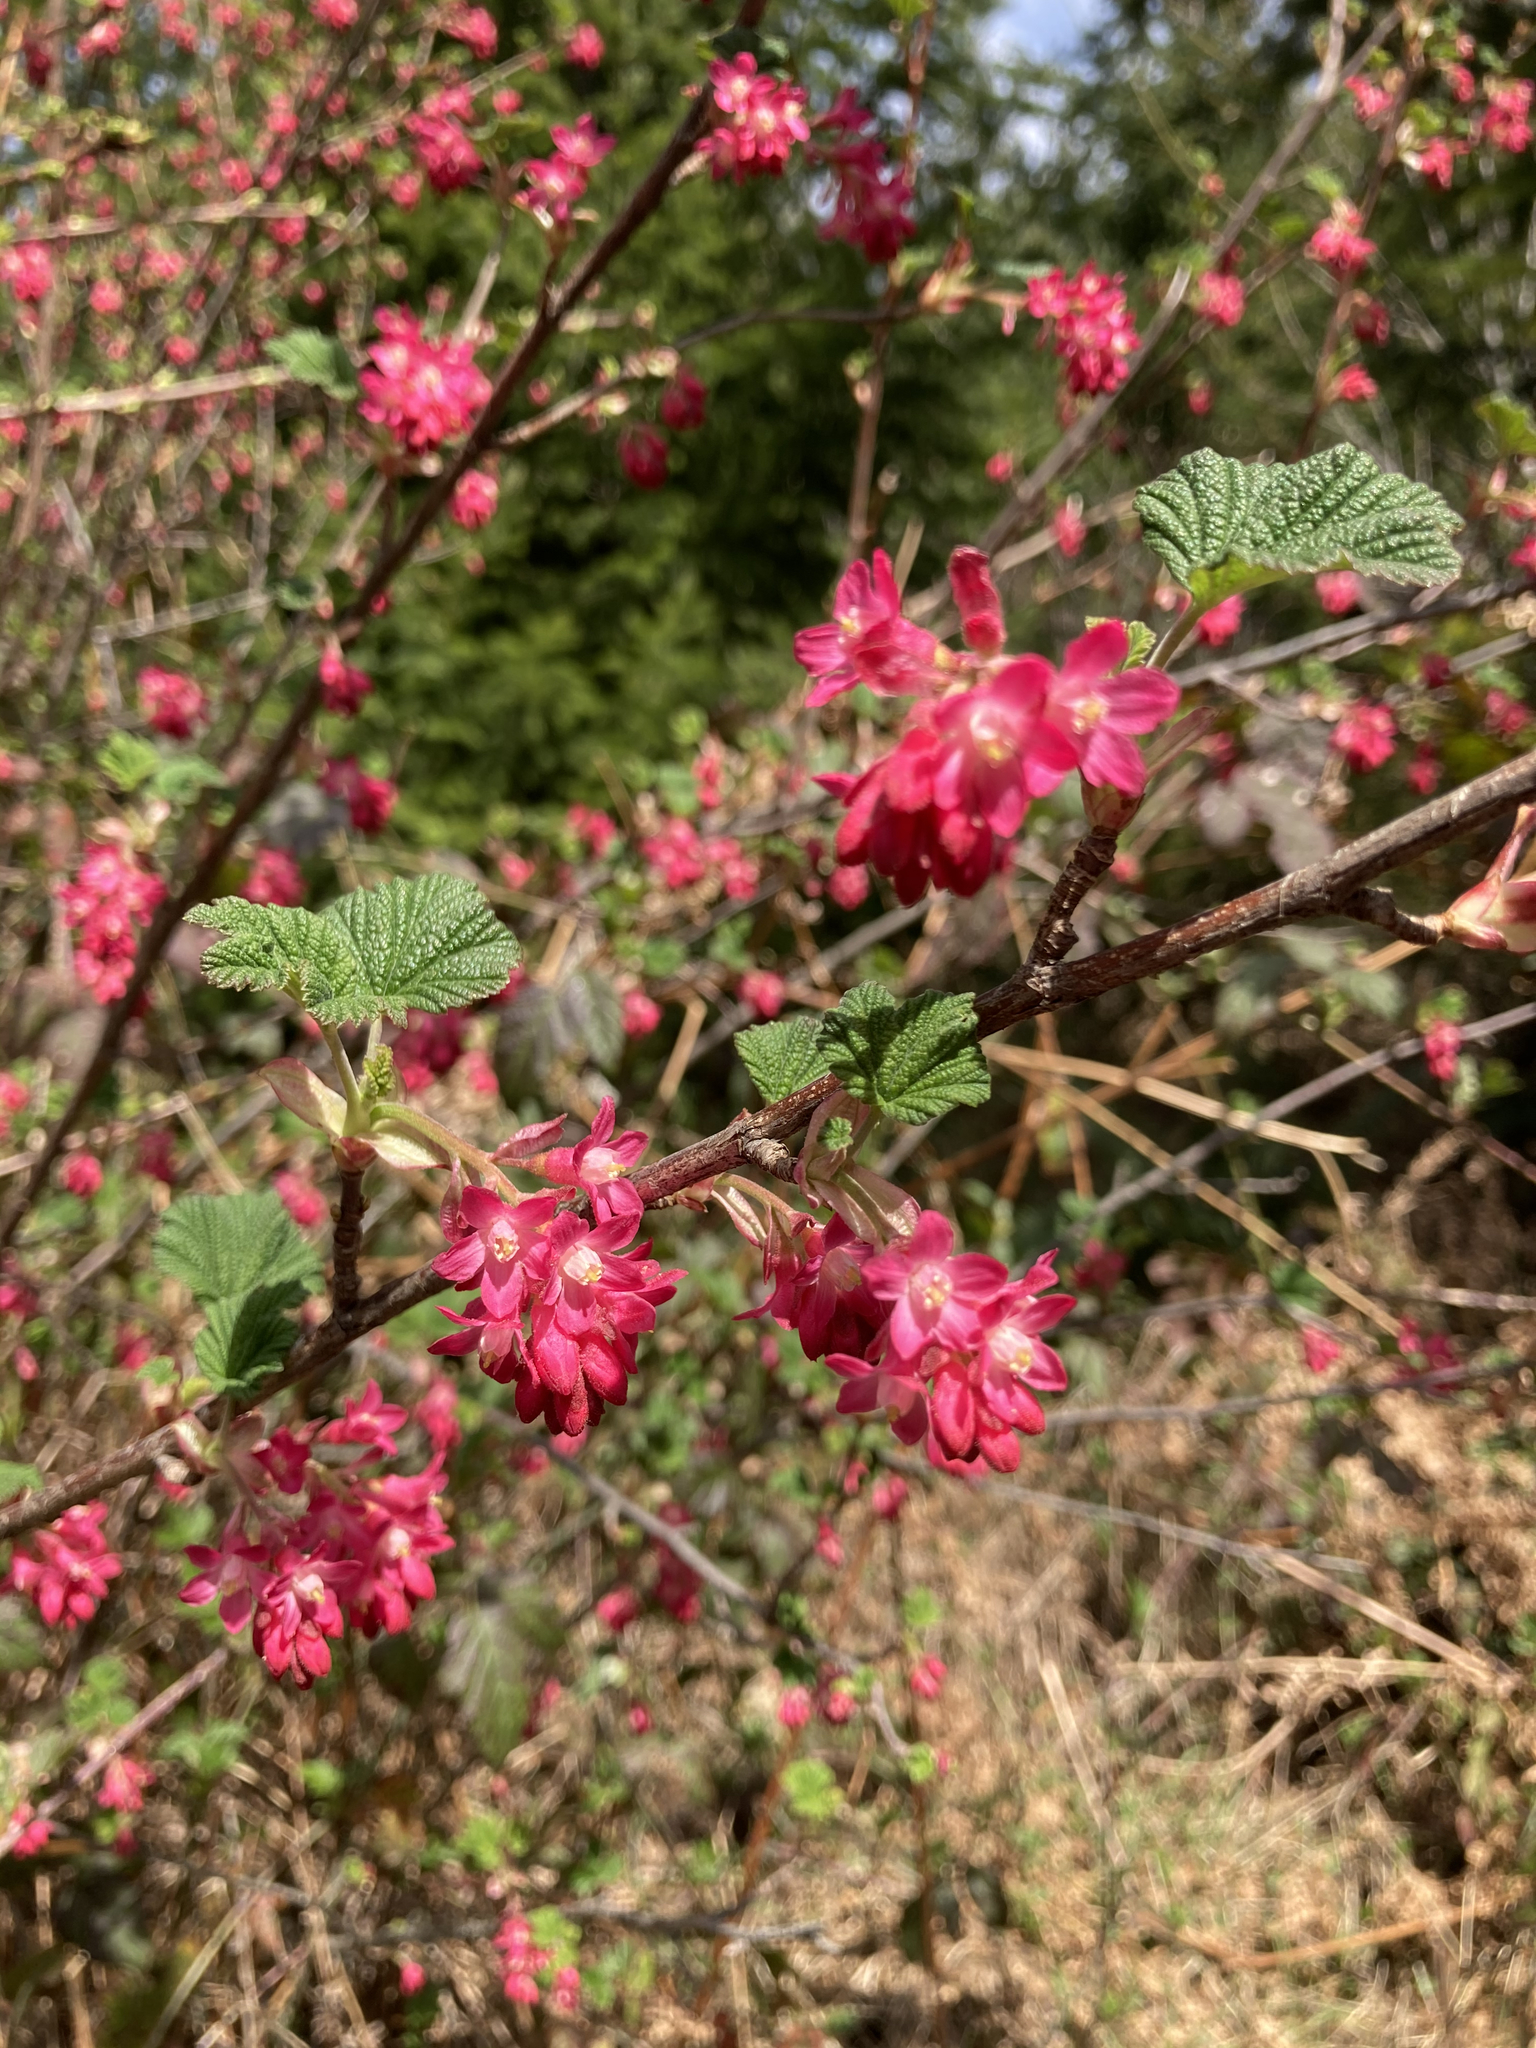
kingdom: Plantae
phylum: Tracheophyta
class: Magnoliopsida
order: Saxifragales
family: Grossulariaceae
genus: Ribes
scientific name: Ribes sanguineum
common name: Flowering currant
